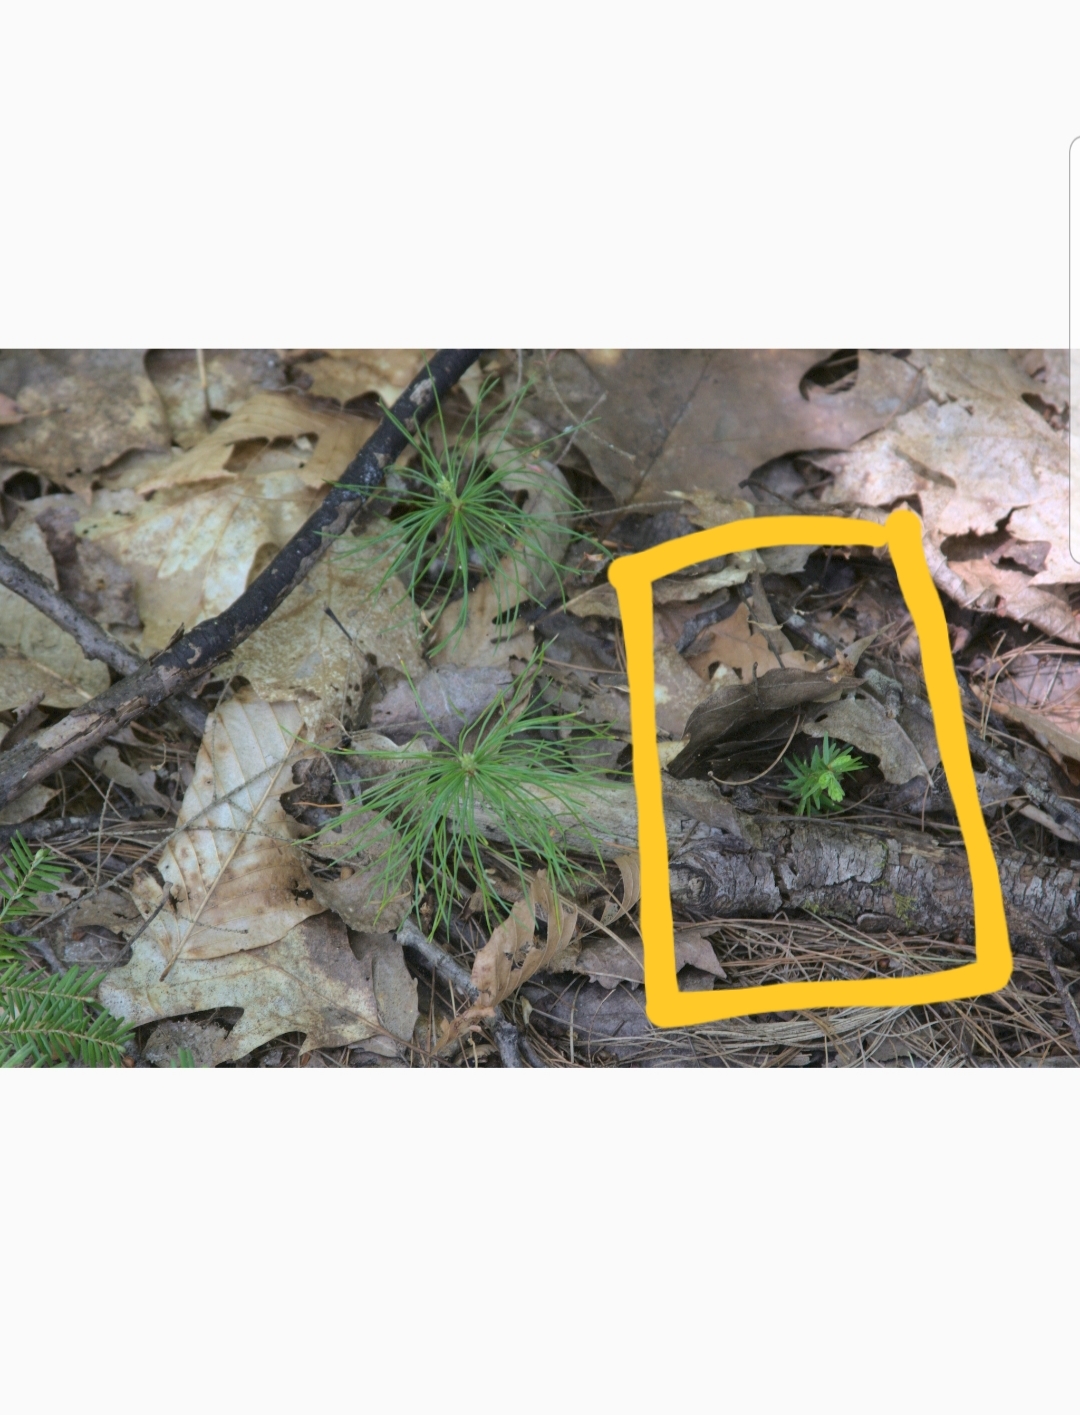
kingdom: Plantae
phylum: Tracheophyta
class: Pinopsida
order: Pinales
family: Pinaceae
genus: Tsuga
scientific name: Tsuga canadensis
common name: Eastern hemlock
